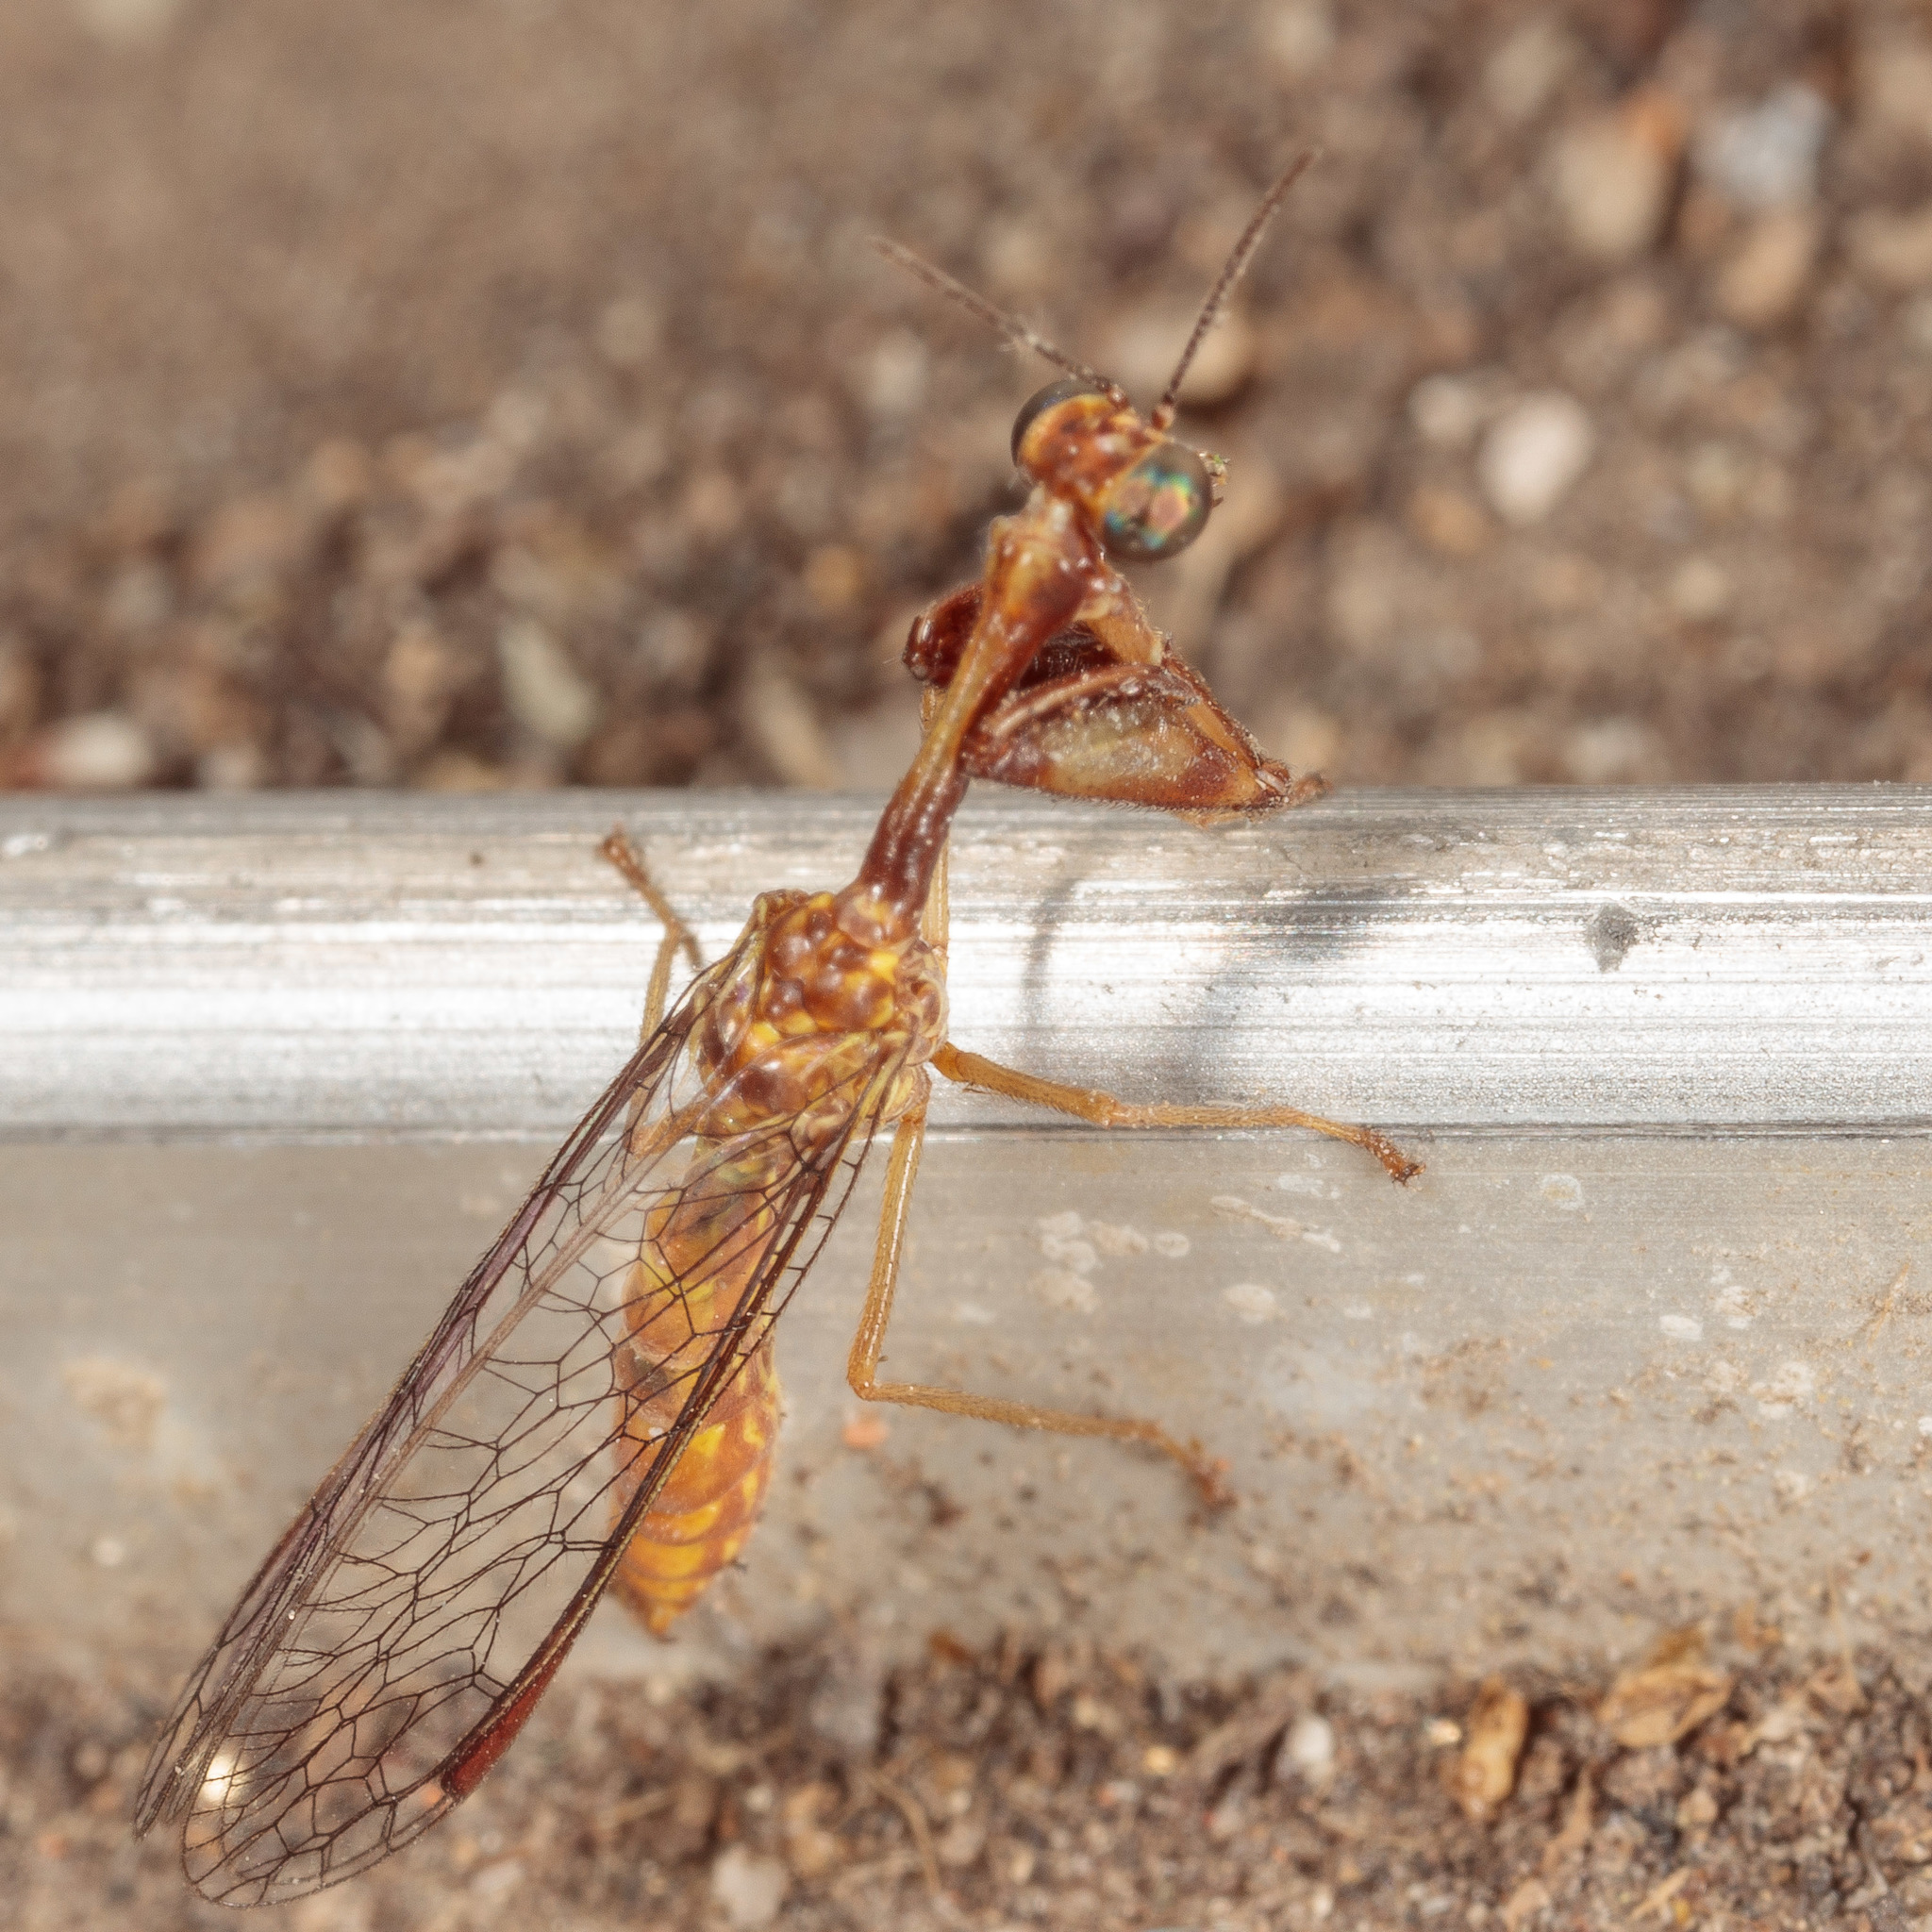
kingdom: Animalia
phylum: Arthropoda
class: Insecta
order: Neuroptera
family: Mantispidae
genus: Leptomantispa
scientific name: Leptomantispa pulchella
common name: Stevens's mantidfly
